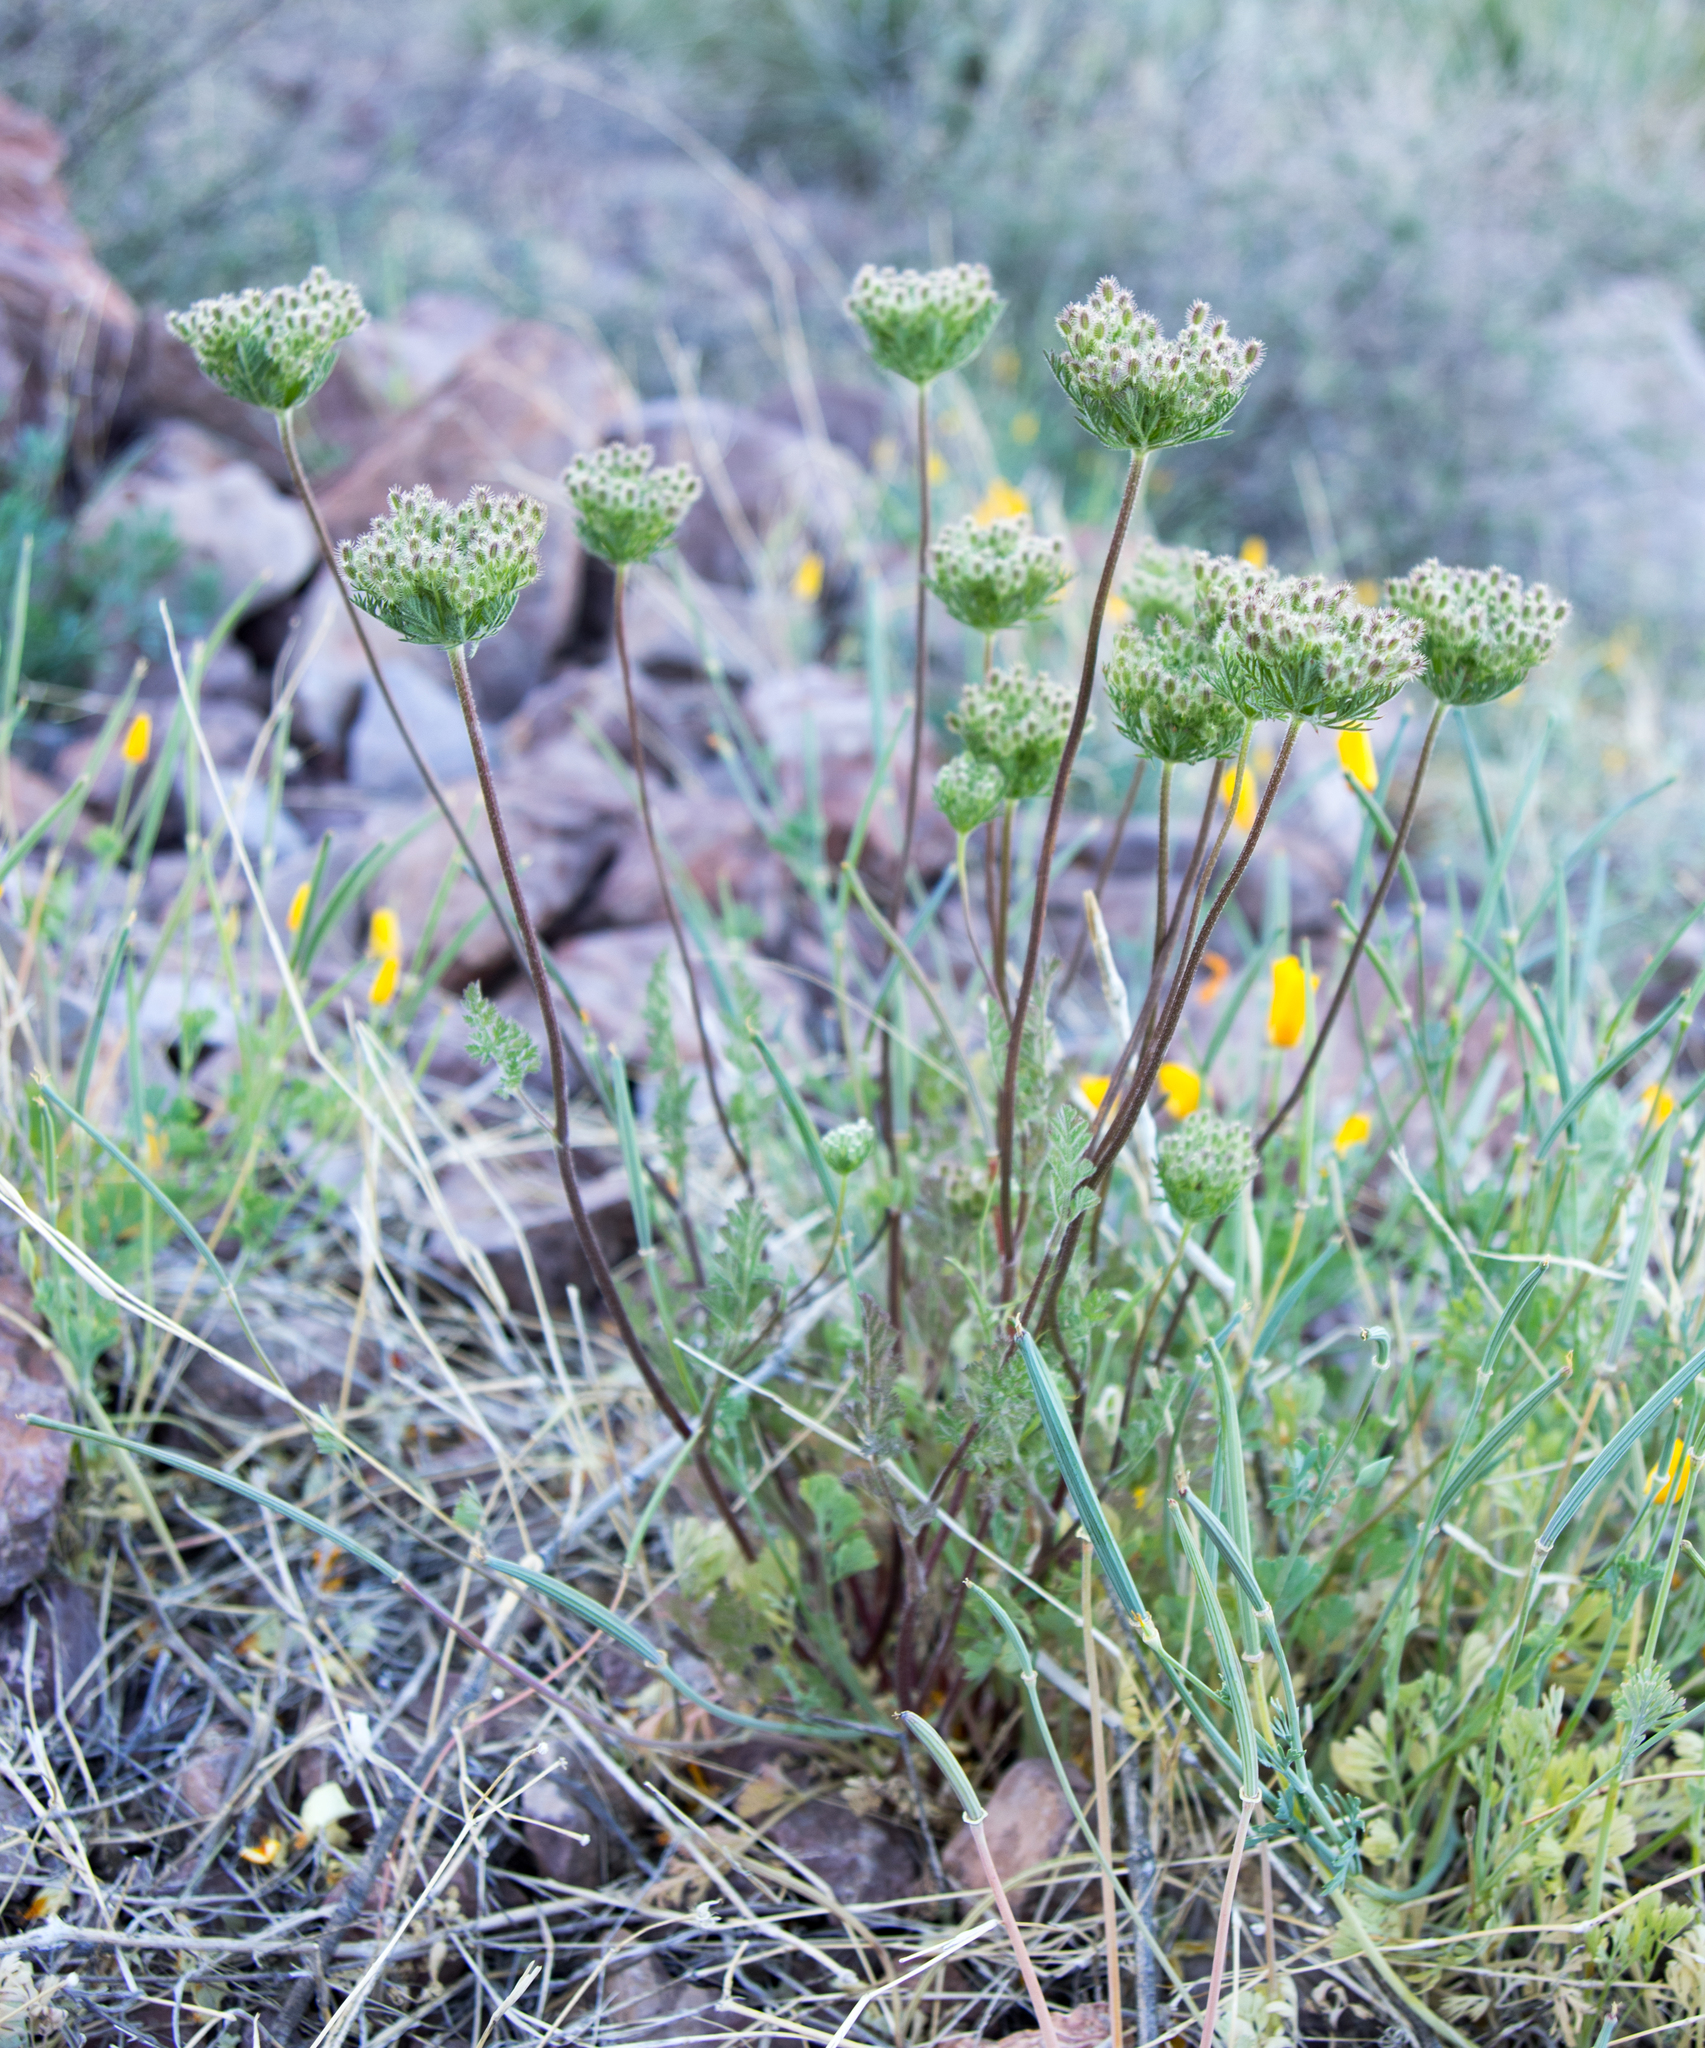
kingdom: Plantae
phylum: Tracheophyta
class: Magnoliopsida
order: Apiales
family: Apiaceae
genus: Daucus
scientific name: Daucus pusillus
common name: Southwest wild carrot
